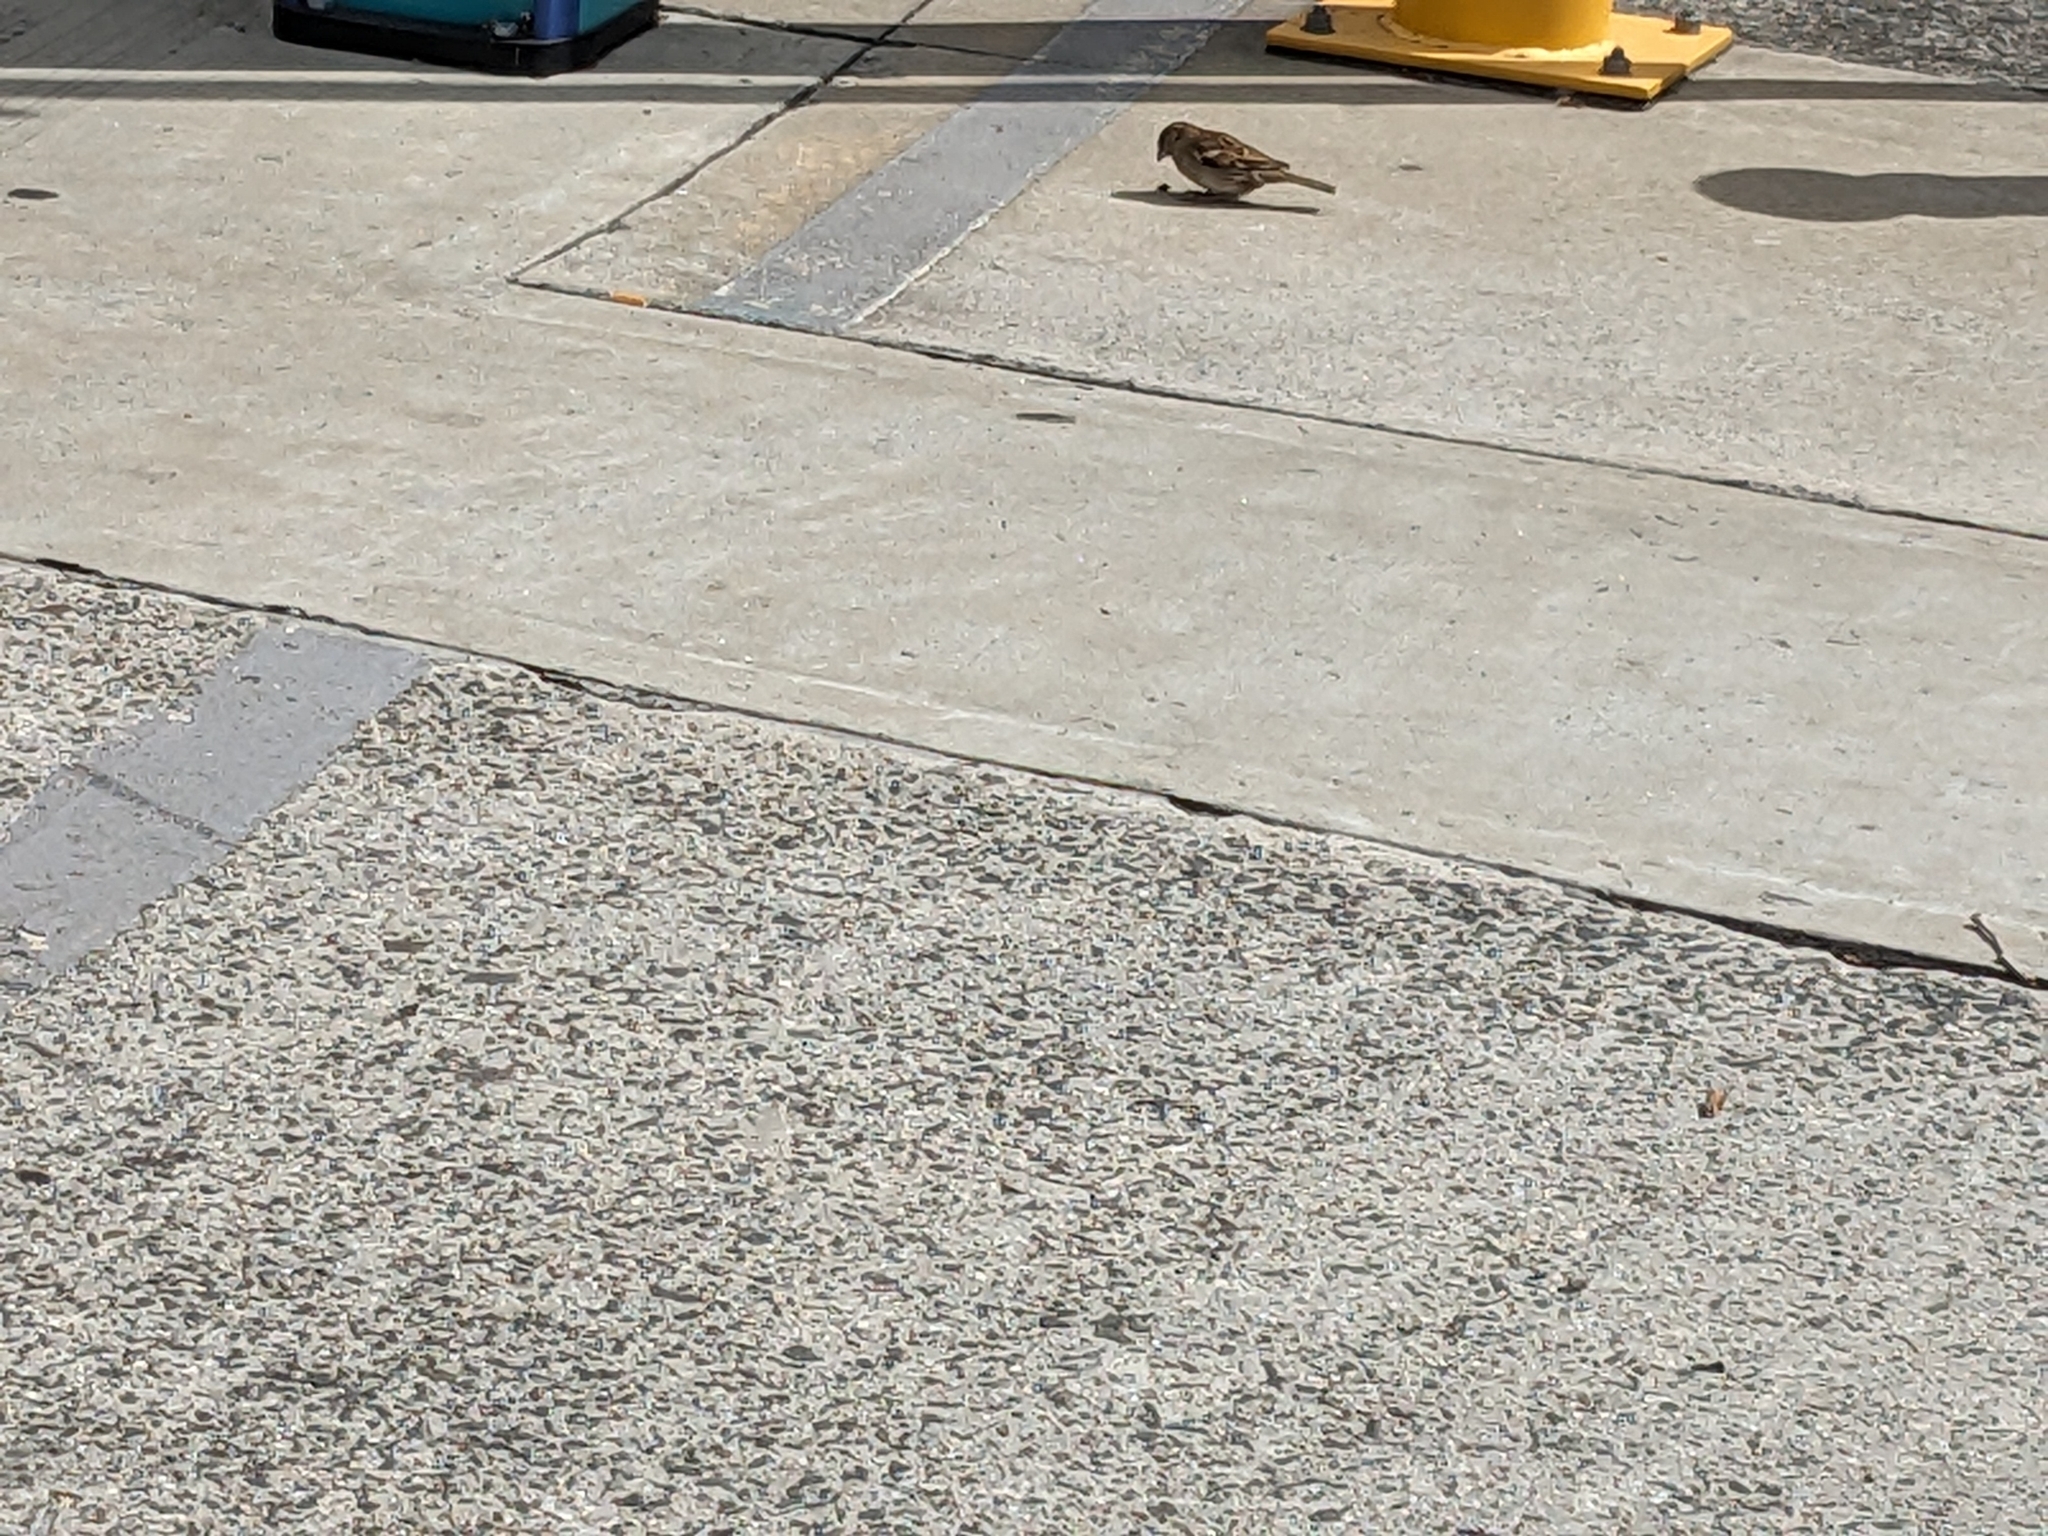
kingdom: Animalia
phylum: Chordata
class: Aves
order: Passeriformes
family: Passeridae
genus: Passer
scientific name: Passer domesticus
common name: House sparrow
